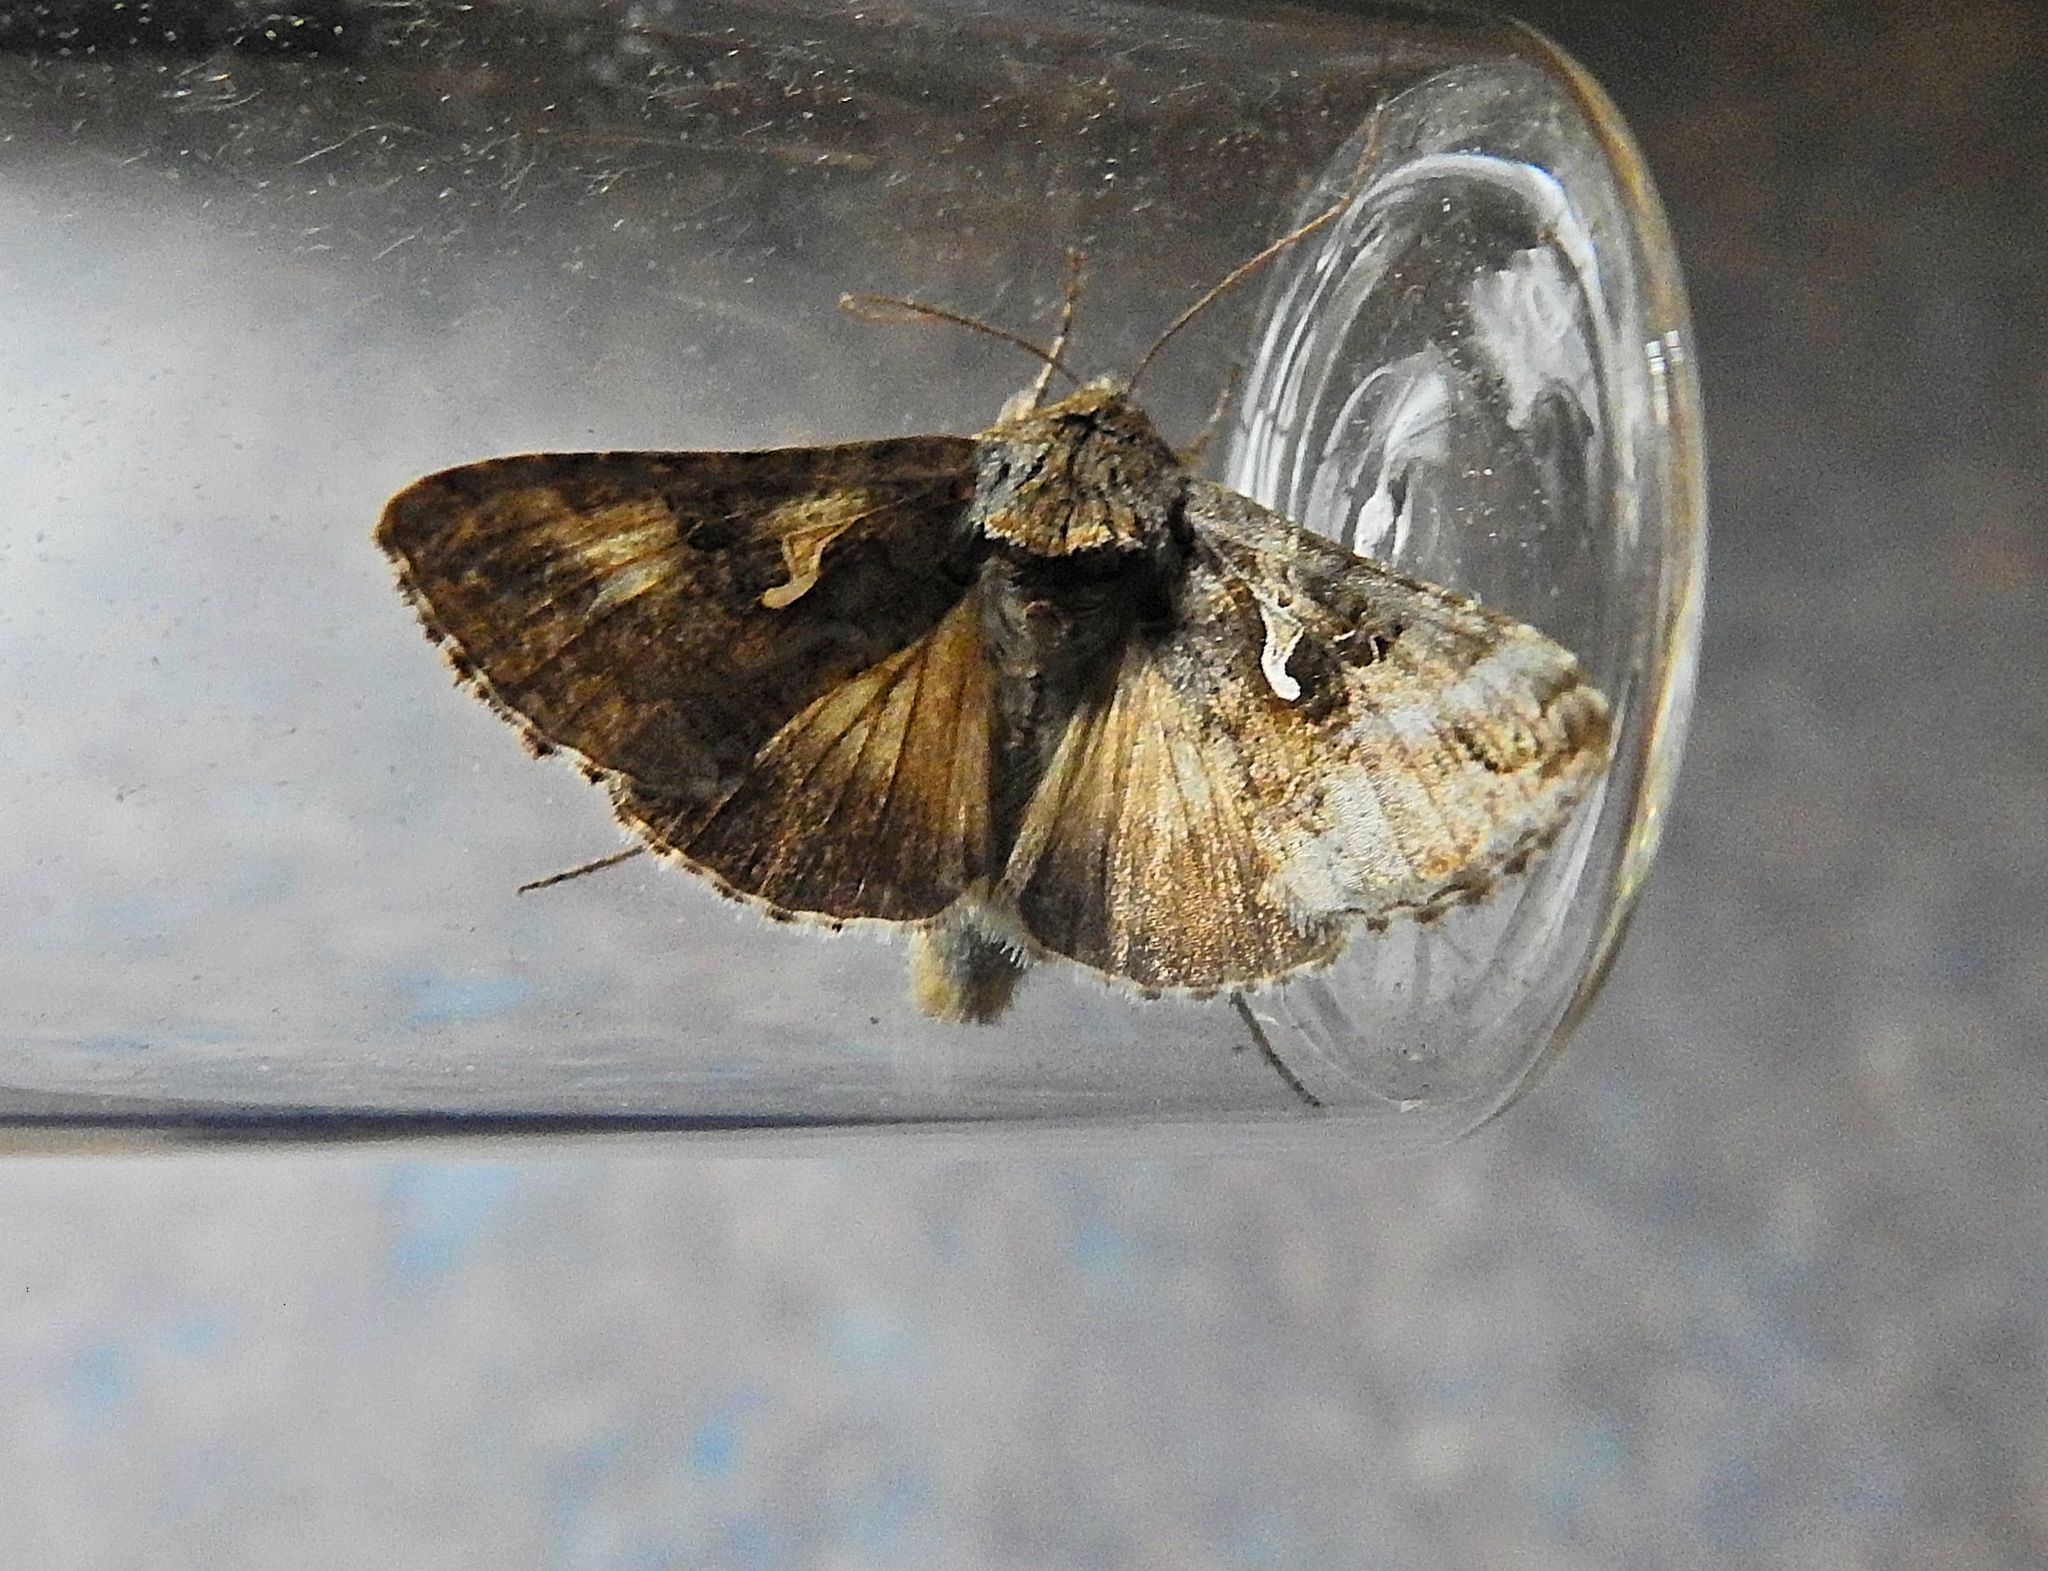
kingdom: Animalia
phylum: Arthropoda
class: Insecta
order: Lepidoptera
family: Noctuidae
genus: Autographa
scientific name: Autographa gamma
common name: Silver y
